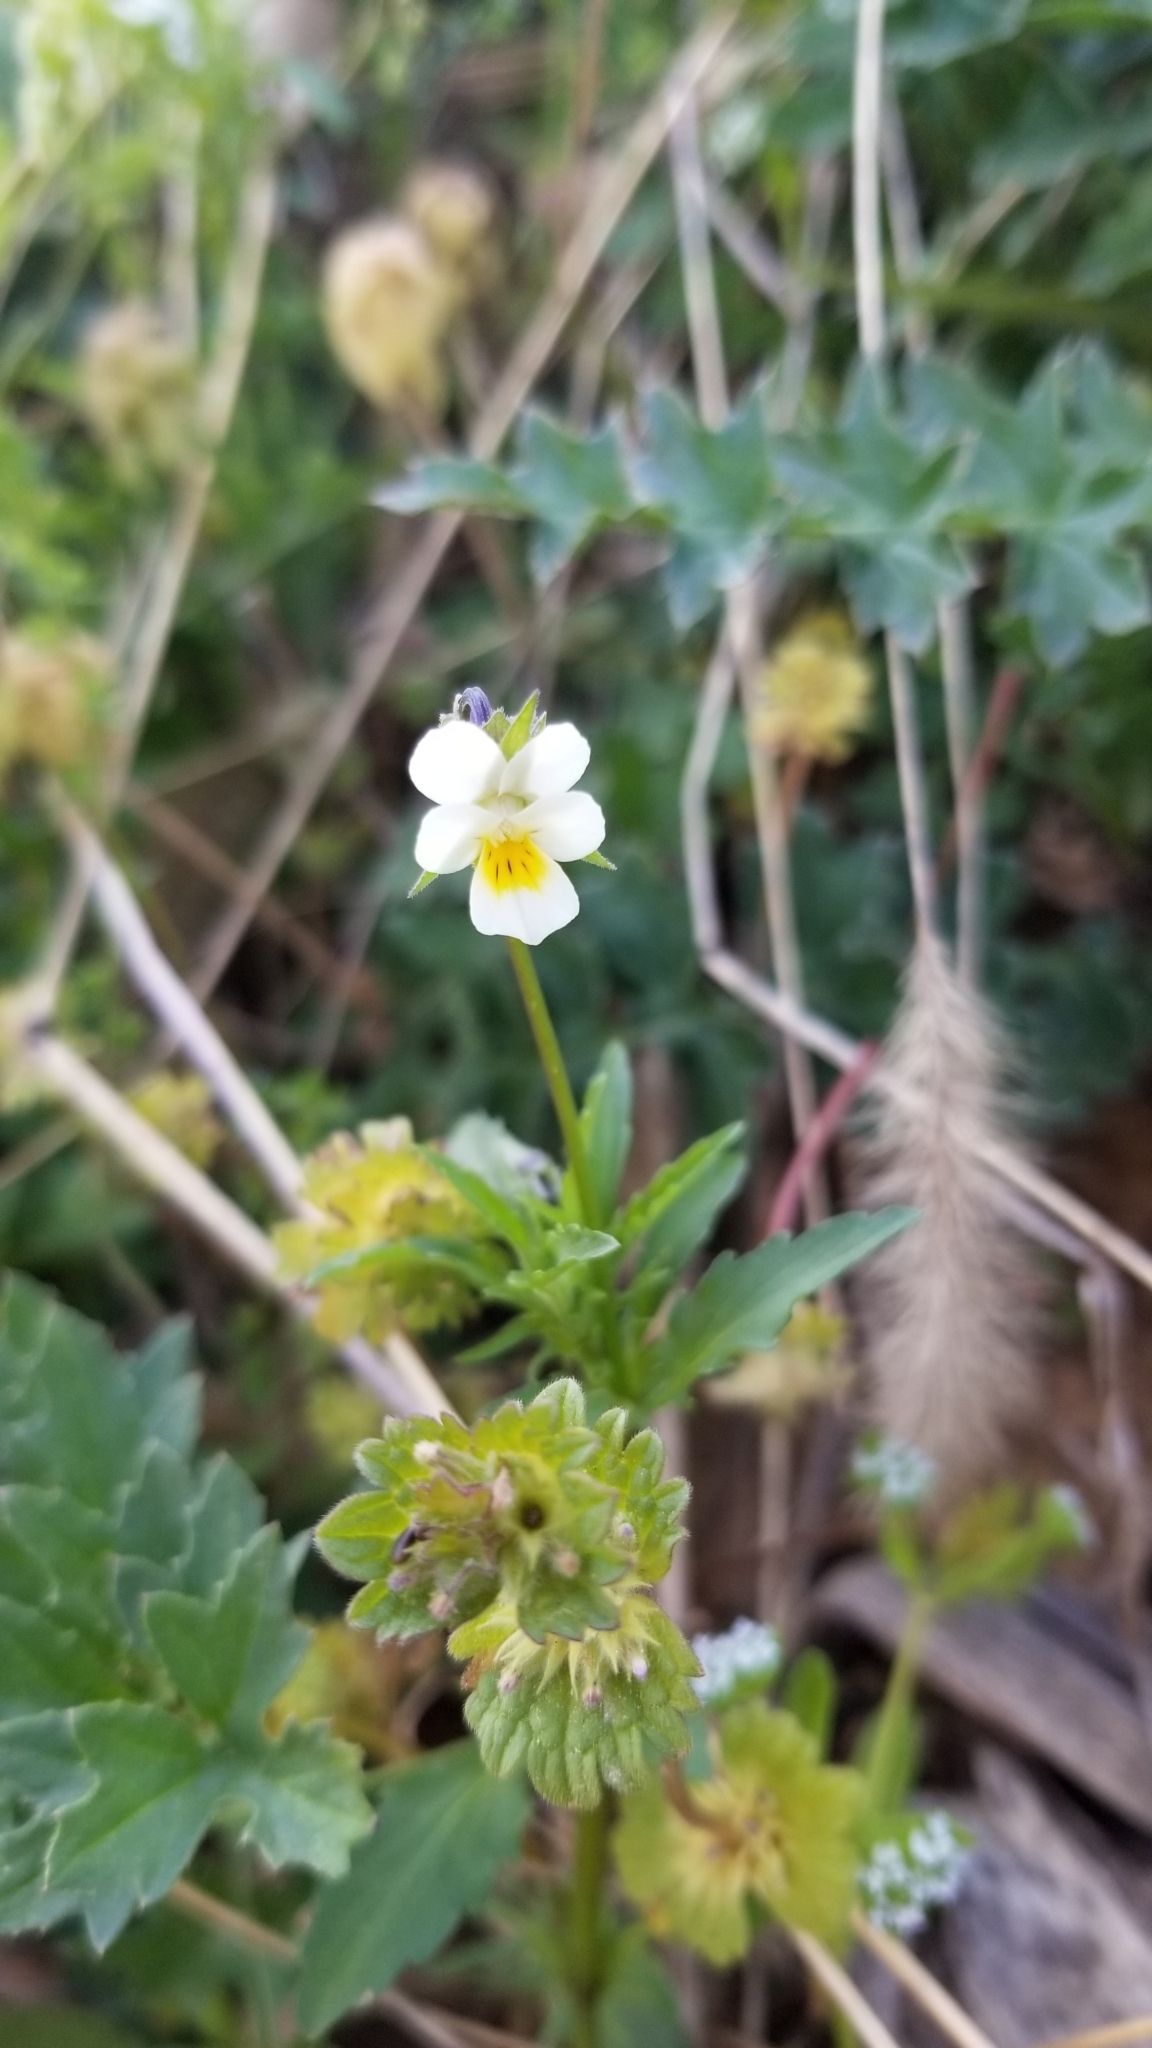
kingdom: Plantae
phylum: Tracheophyta
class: Magnoliopsida
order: Malpighiales
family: Violaceae
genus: Viola
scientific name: Viola arvensis
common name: Field pansy
